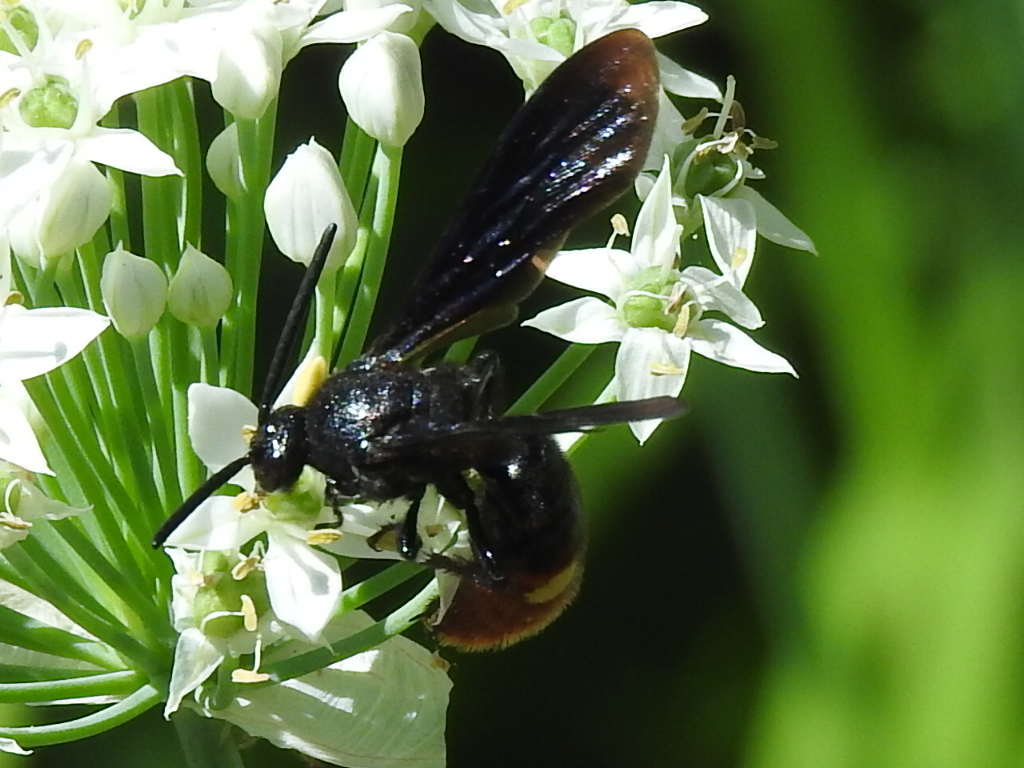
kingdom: Animalia
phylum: Arthropoda
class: Insecta
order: Hymenoptera
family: Scoliidae
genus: Scolia
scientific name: Scolia dubia
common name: Blue-winged scoliid wasp
